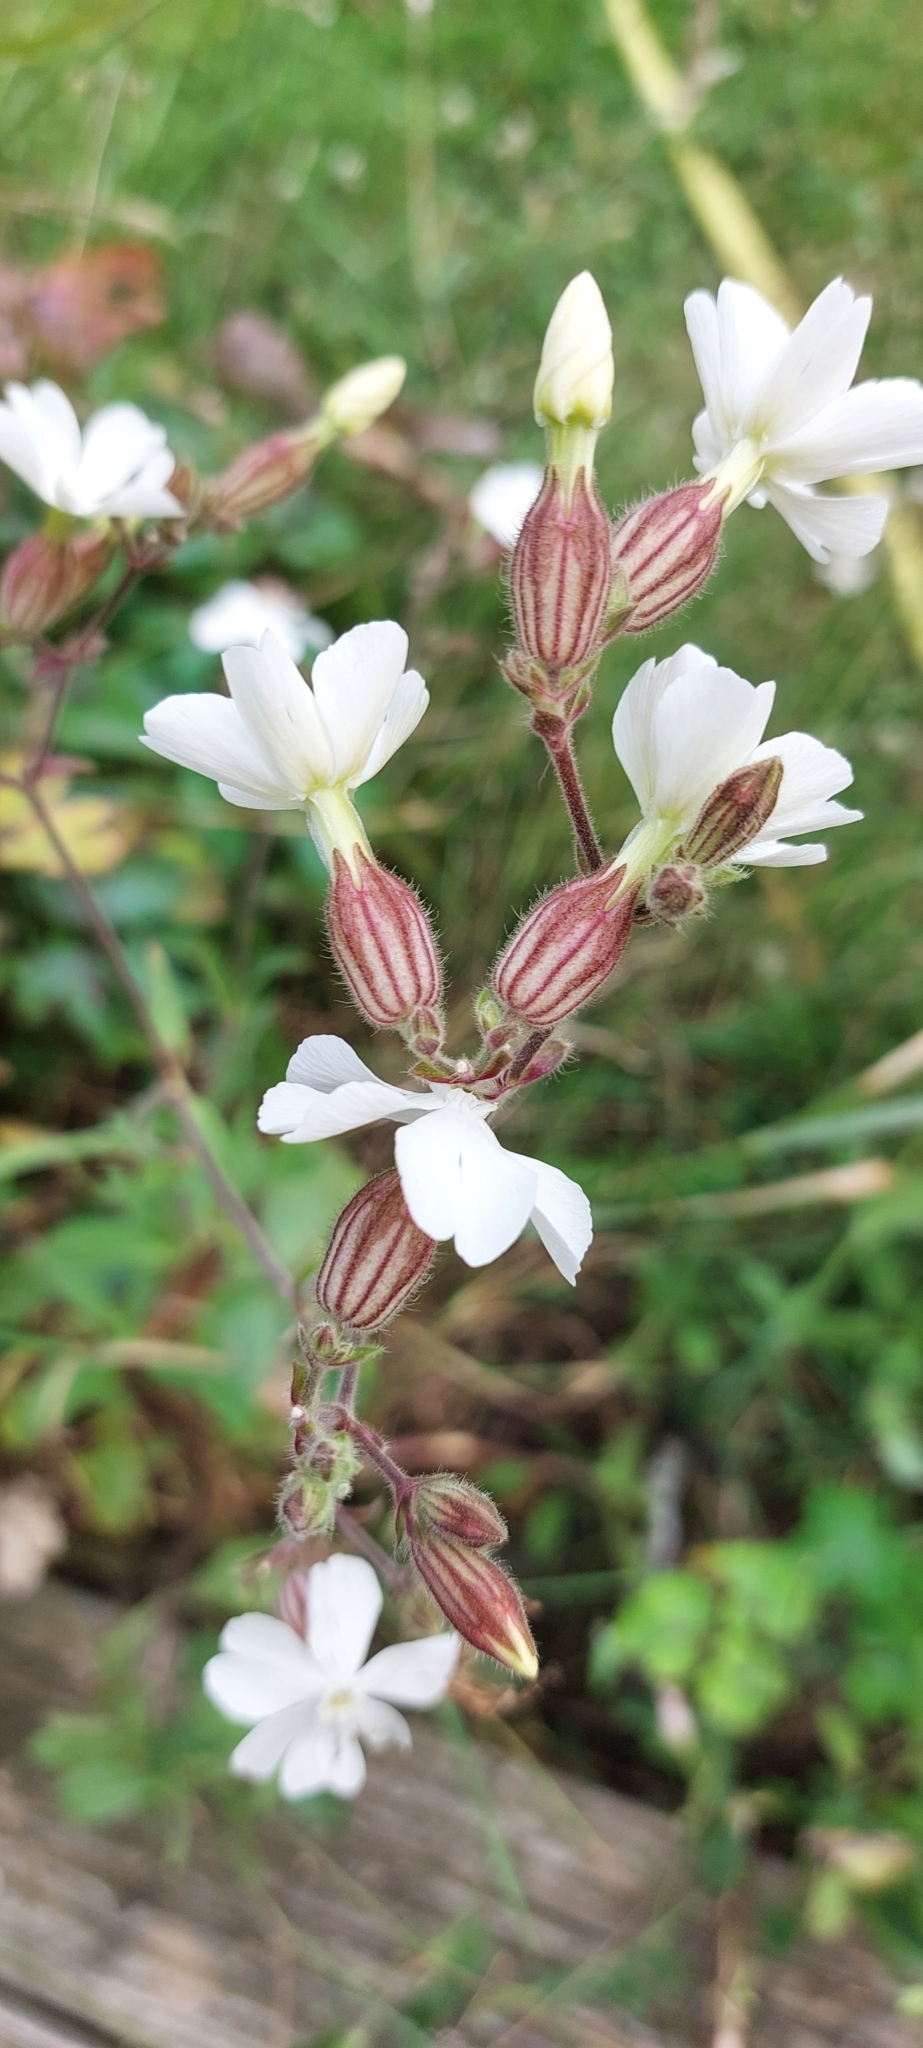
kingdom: Plantae
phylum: Tracheophyta
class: Magnoliopsida
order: Caryophyllales
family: Caryophyllaceae
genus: Silene
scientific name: Silene latifolia
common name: White campion
